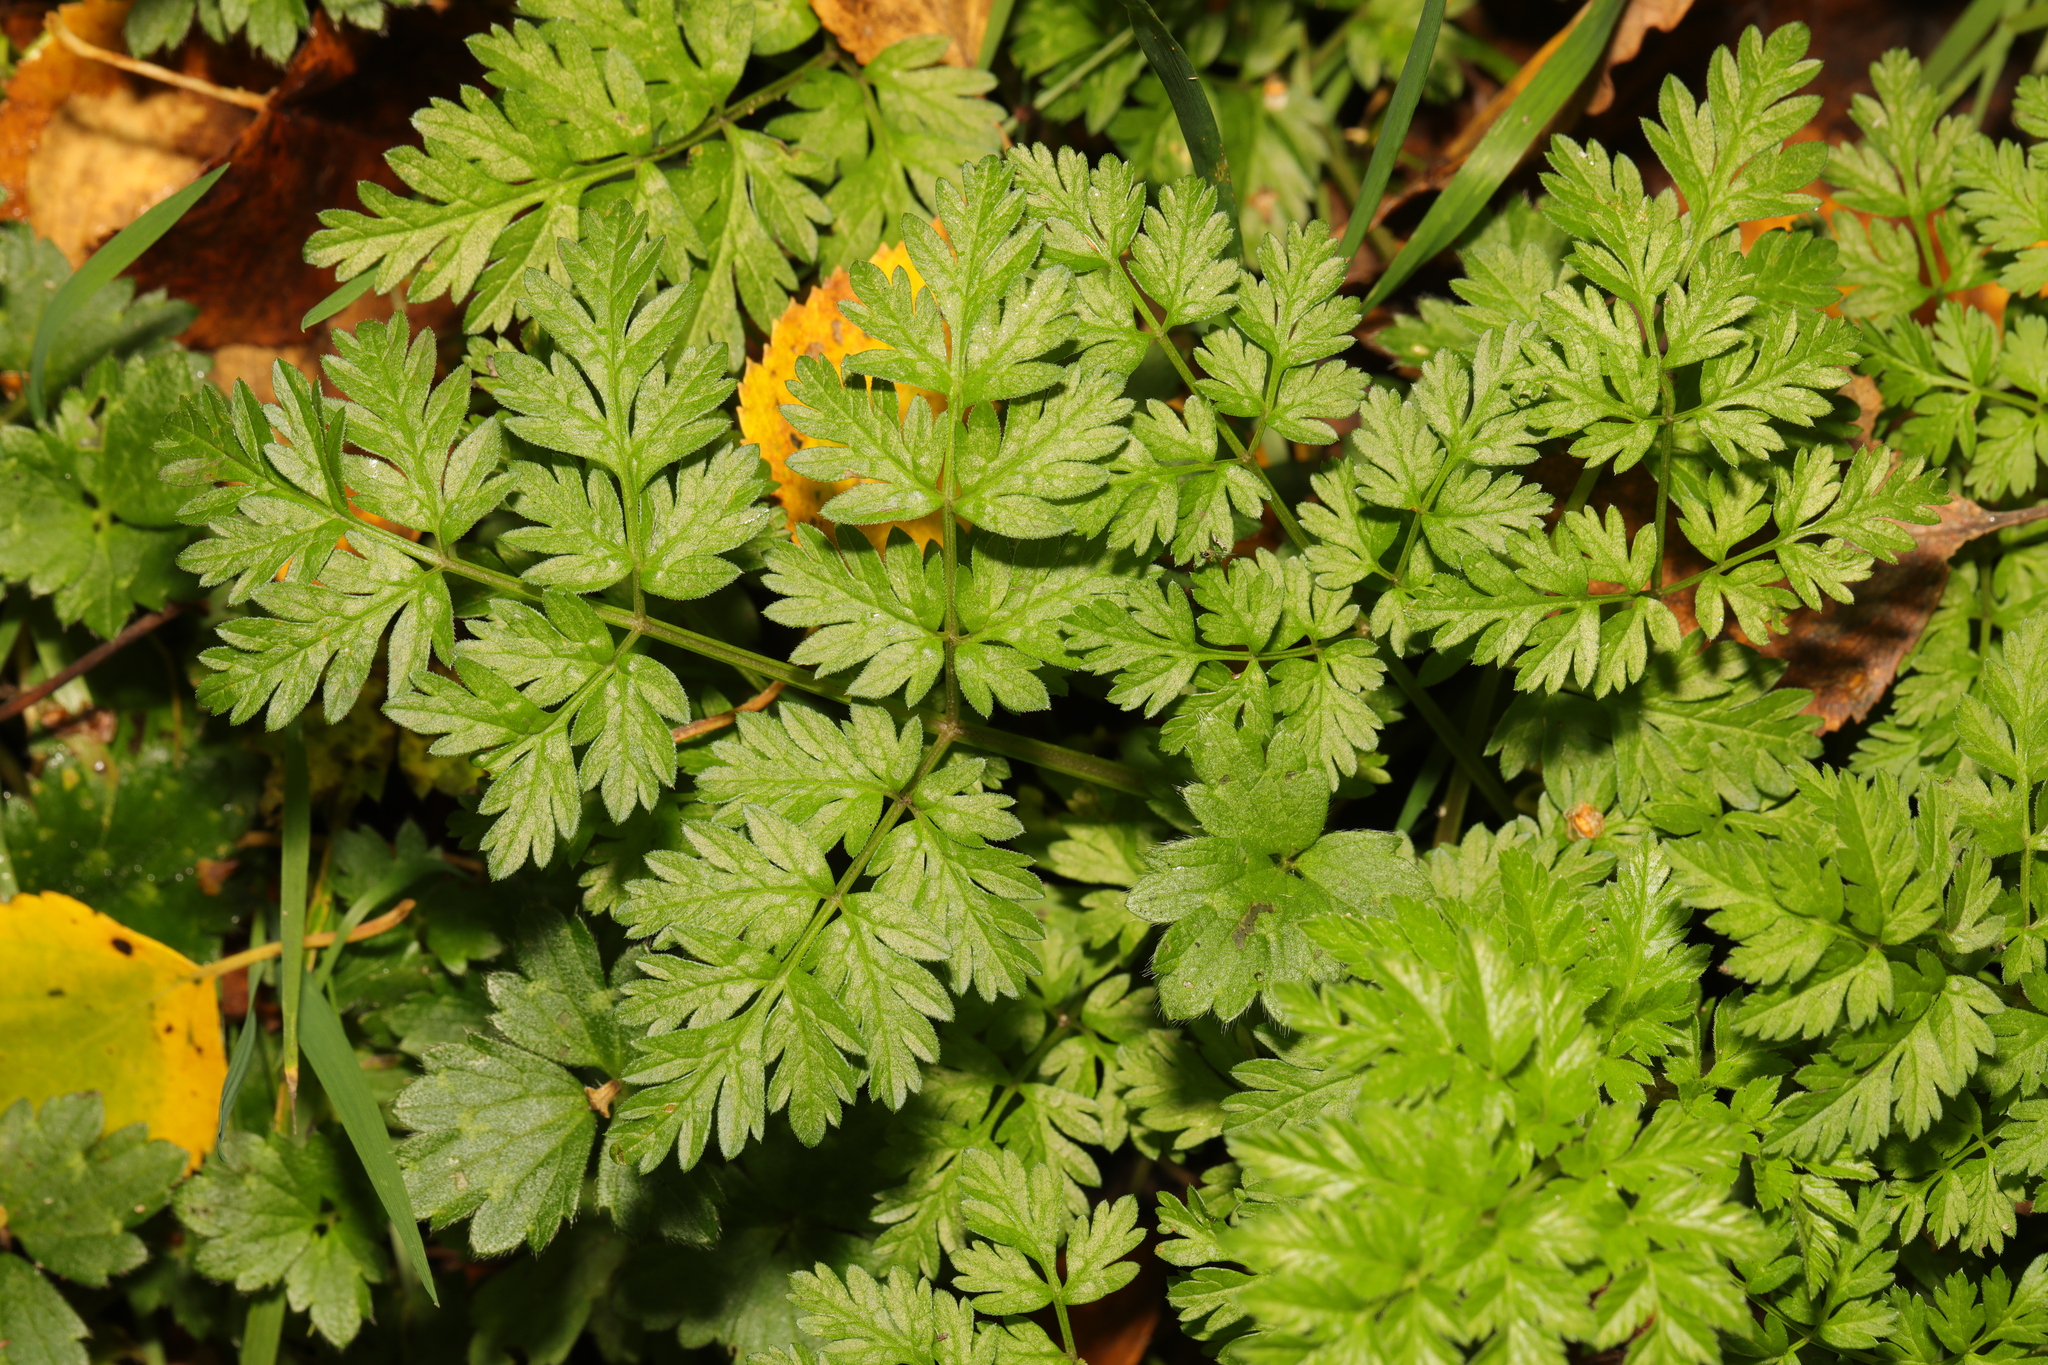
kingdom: Plantae
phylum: Tracheophyta
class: Magnoliopsida
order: Apiales
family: Apiaceae
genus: Anthriscus
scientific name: Anthriscus sylvestris
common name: Cow parsley
